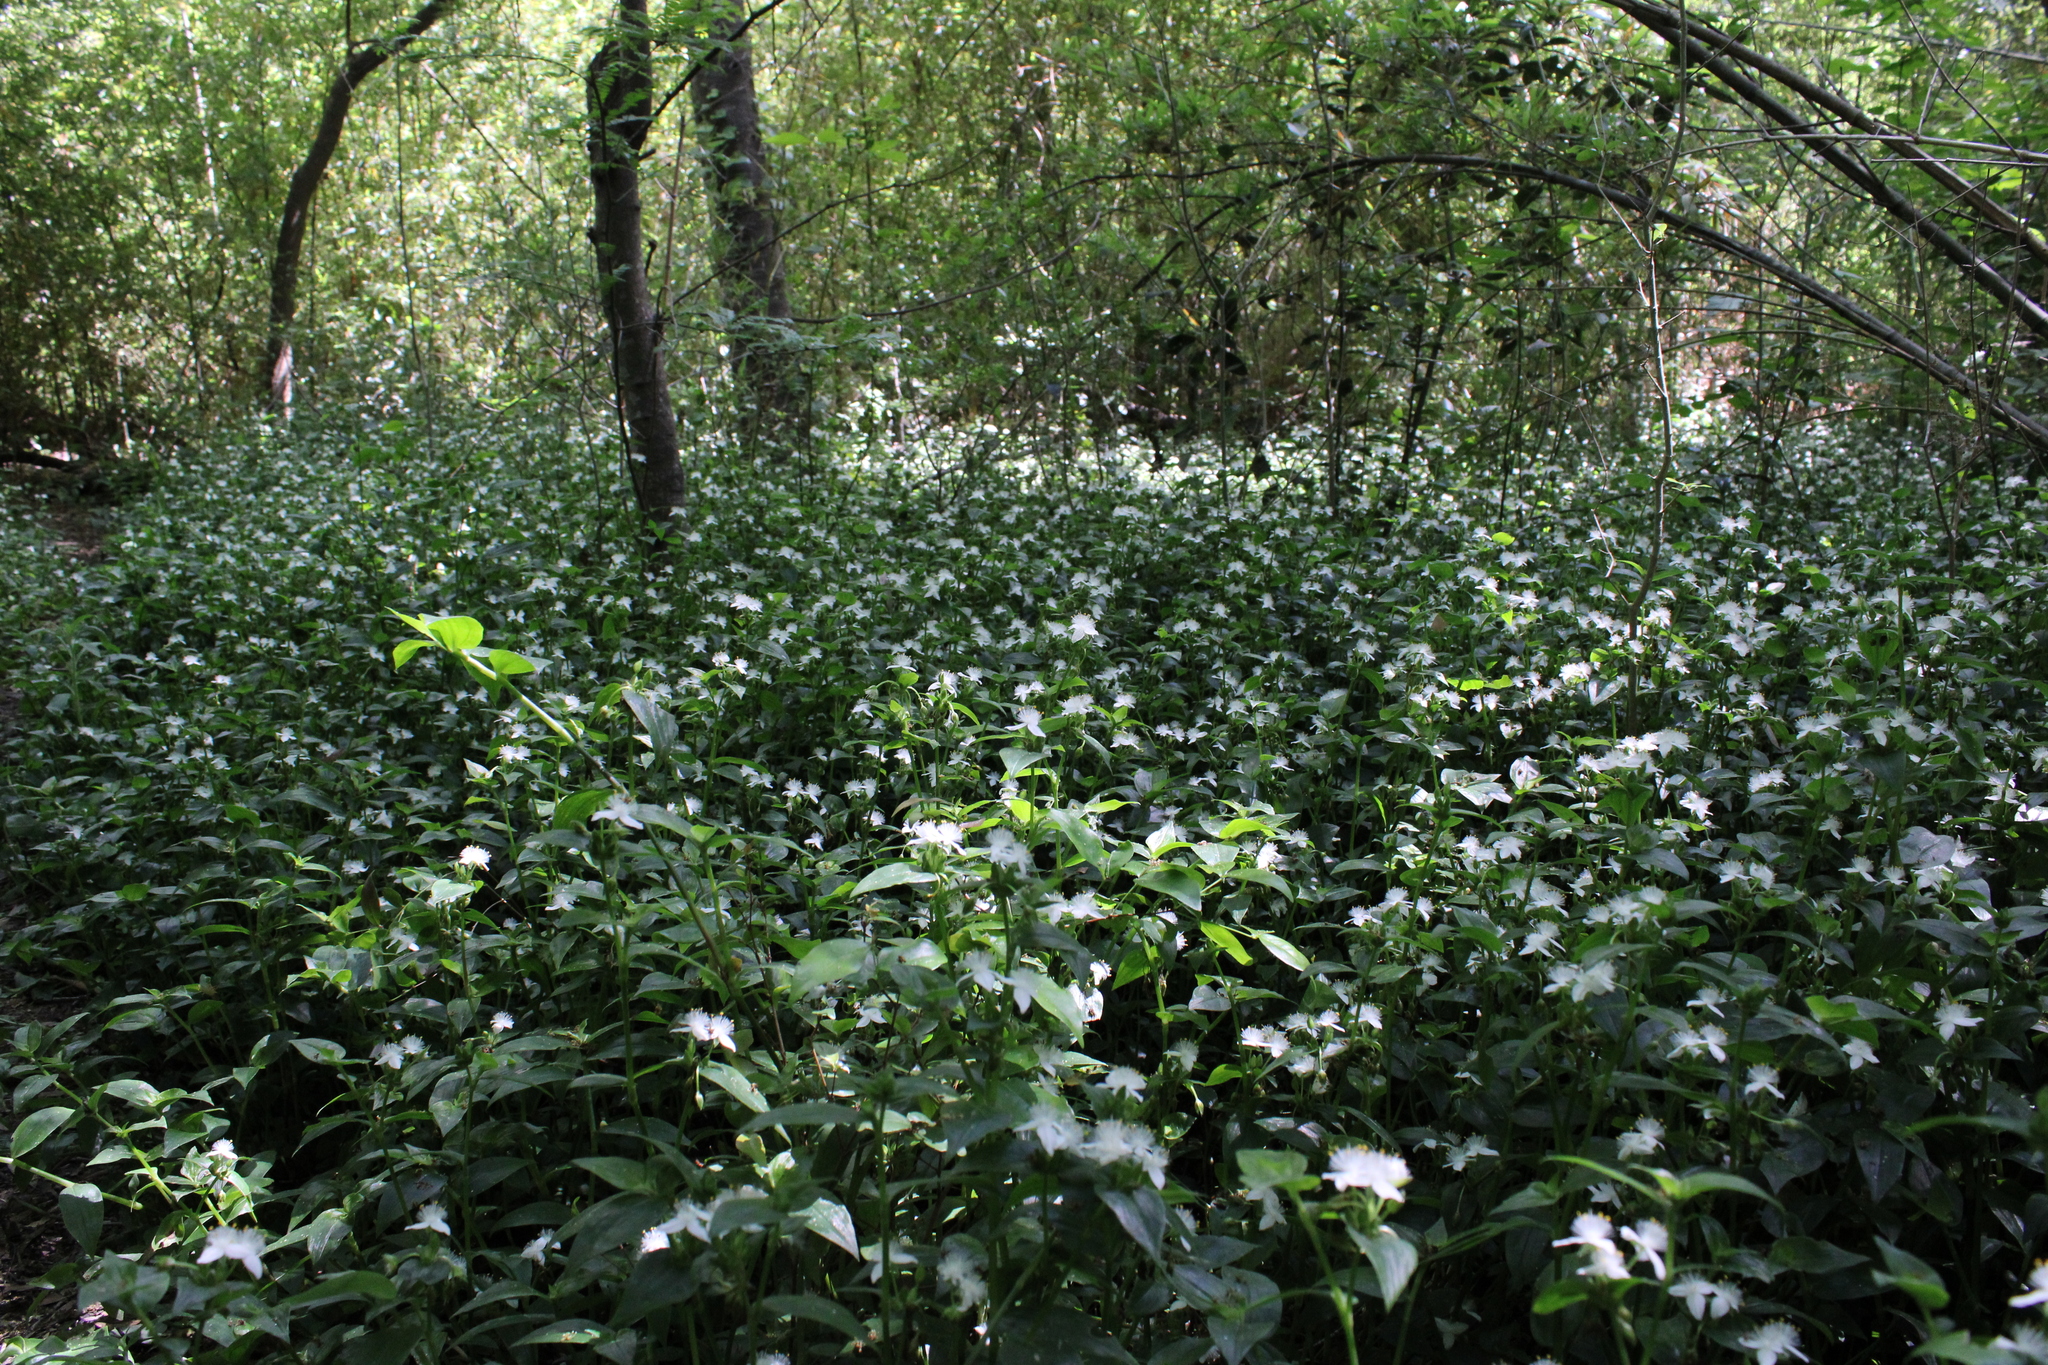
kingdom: Plantae
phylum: Tracheophyta
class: Liliopsida
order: Commelinales
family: Commelinaceae
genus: Tradescantia
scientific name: Tradescantia fluminensis
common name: Wandering-jew
